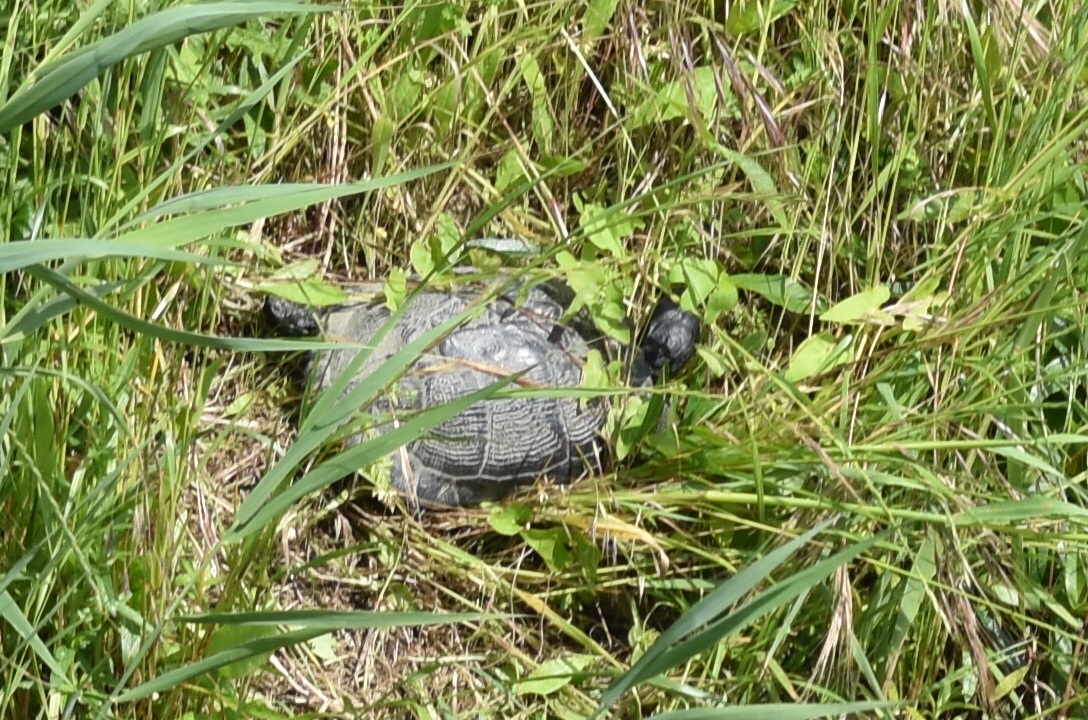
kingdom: Animalia
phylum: Chordata
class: Testudines
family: Emydidae
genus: Trachemys
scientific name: Trachemys scripta
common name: Slider
